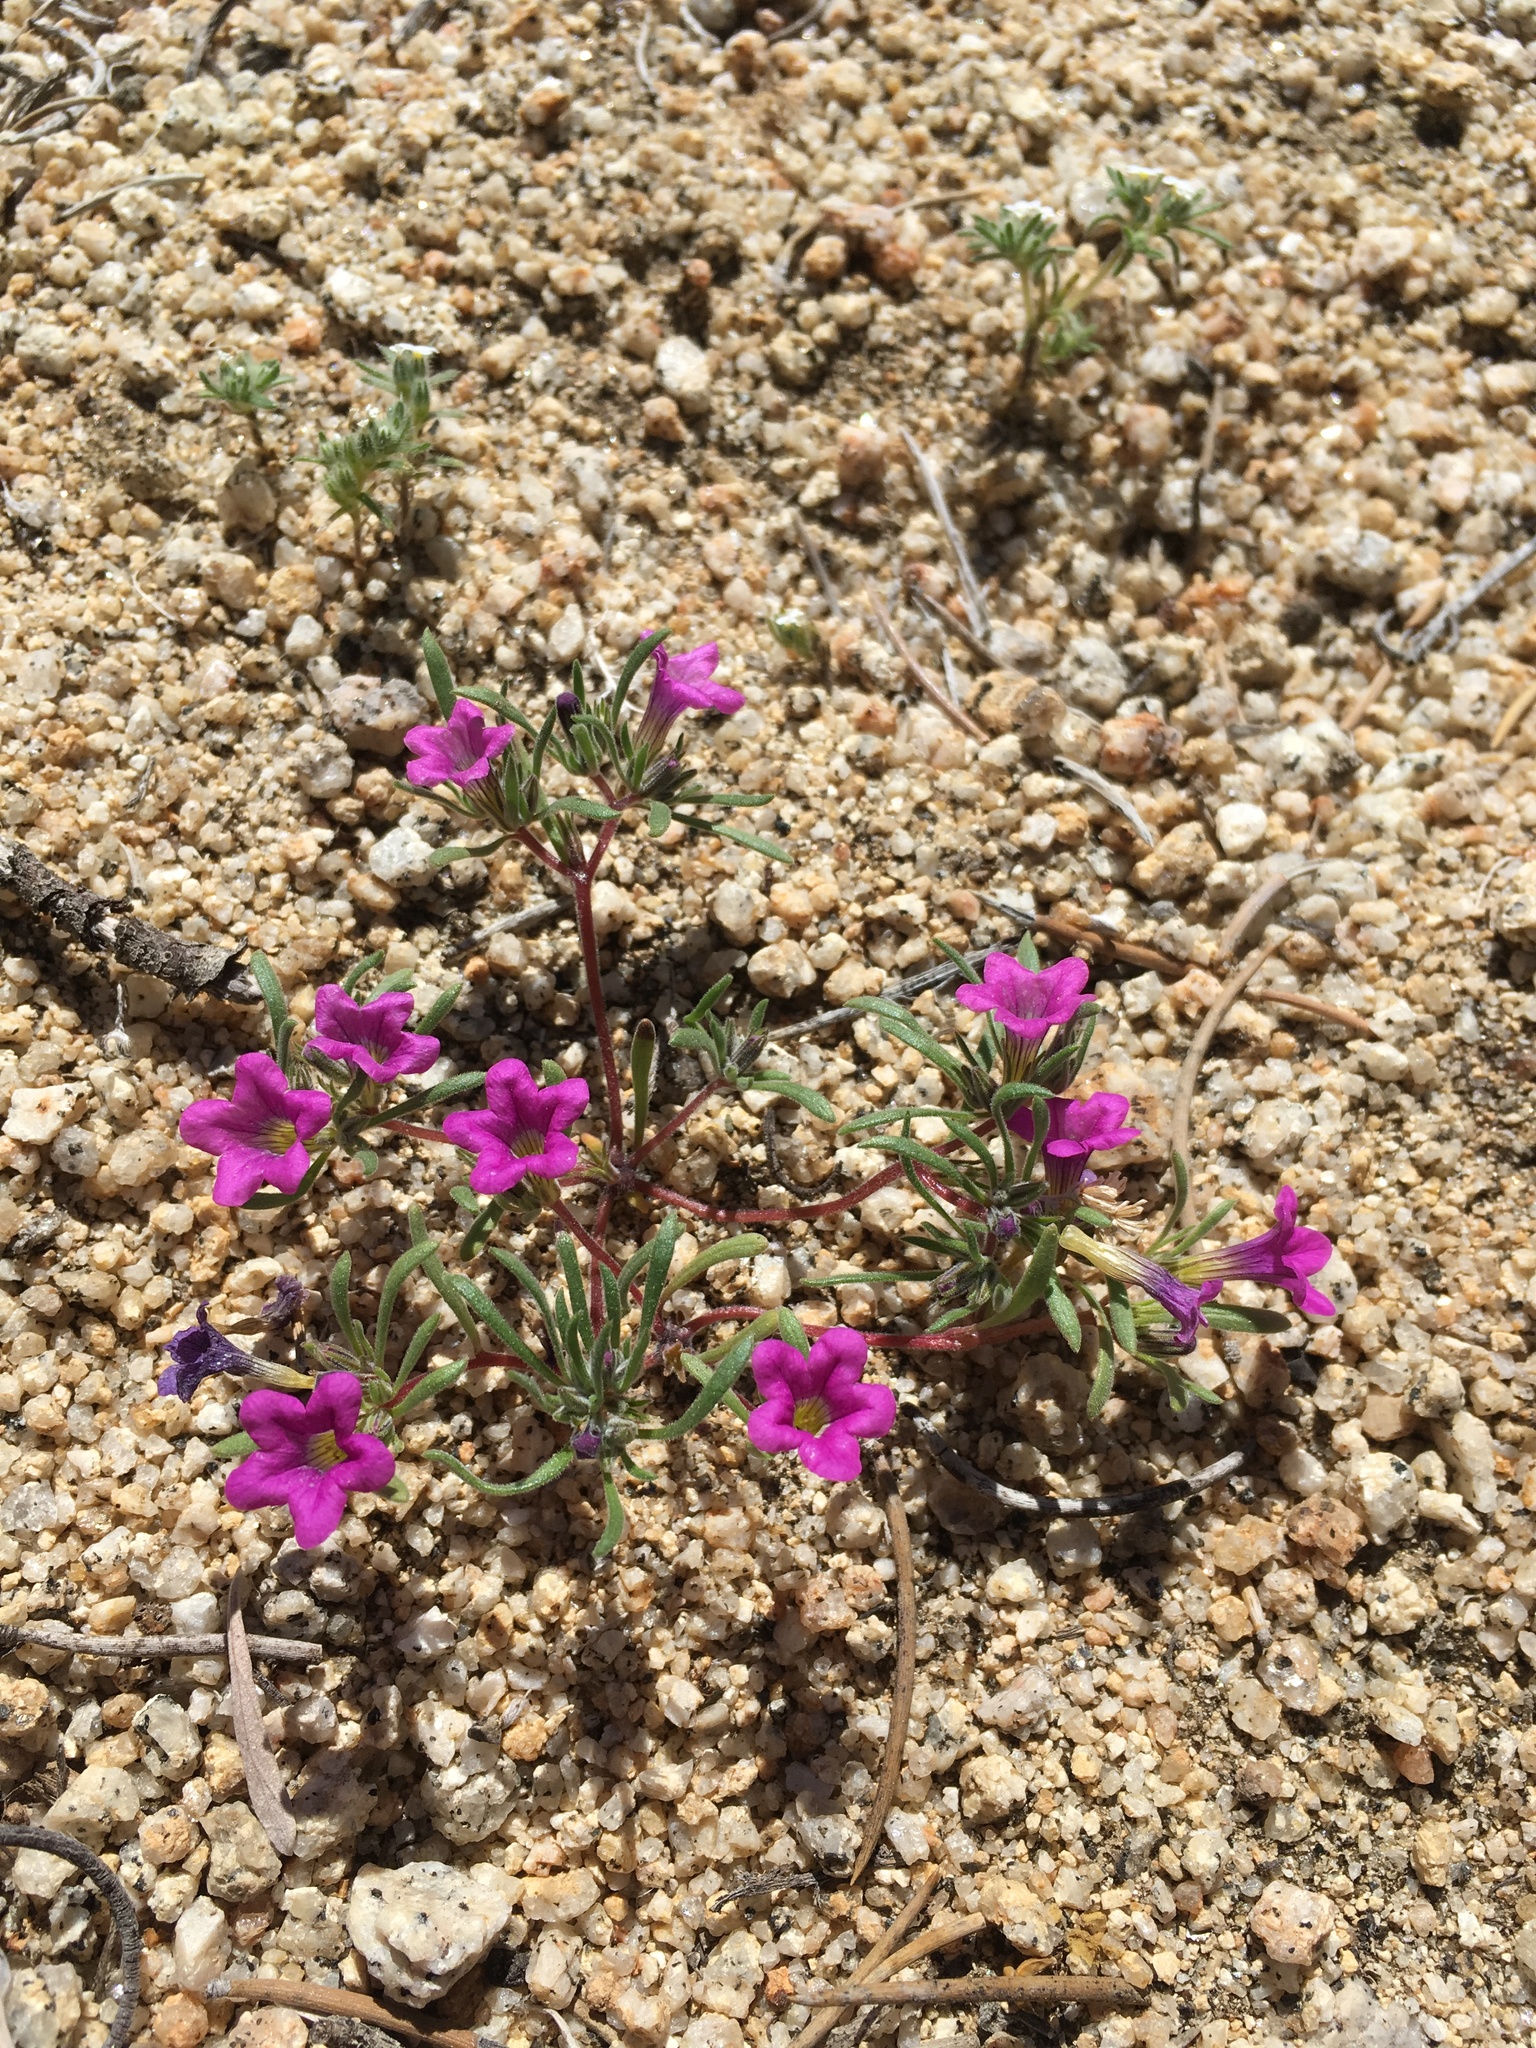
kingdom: Plantae
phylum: Tracheophyta
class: Magnoliopsida
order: Boraginales
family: Namaceae
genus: Nama
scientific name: Nama demissa
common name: Leafy nama
